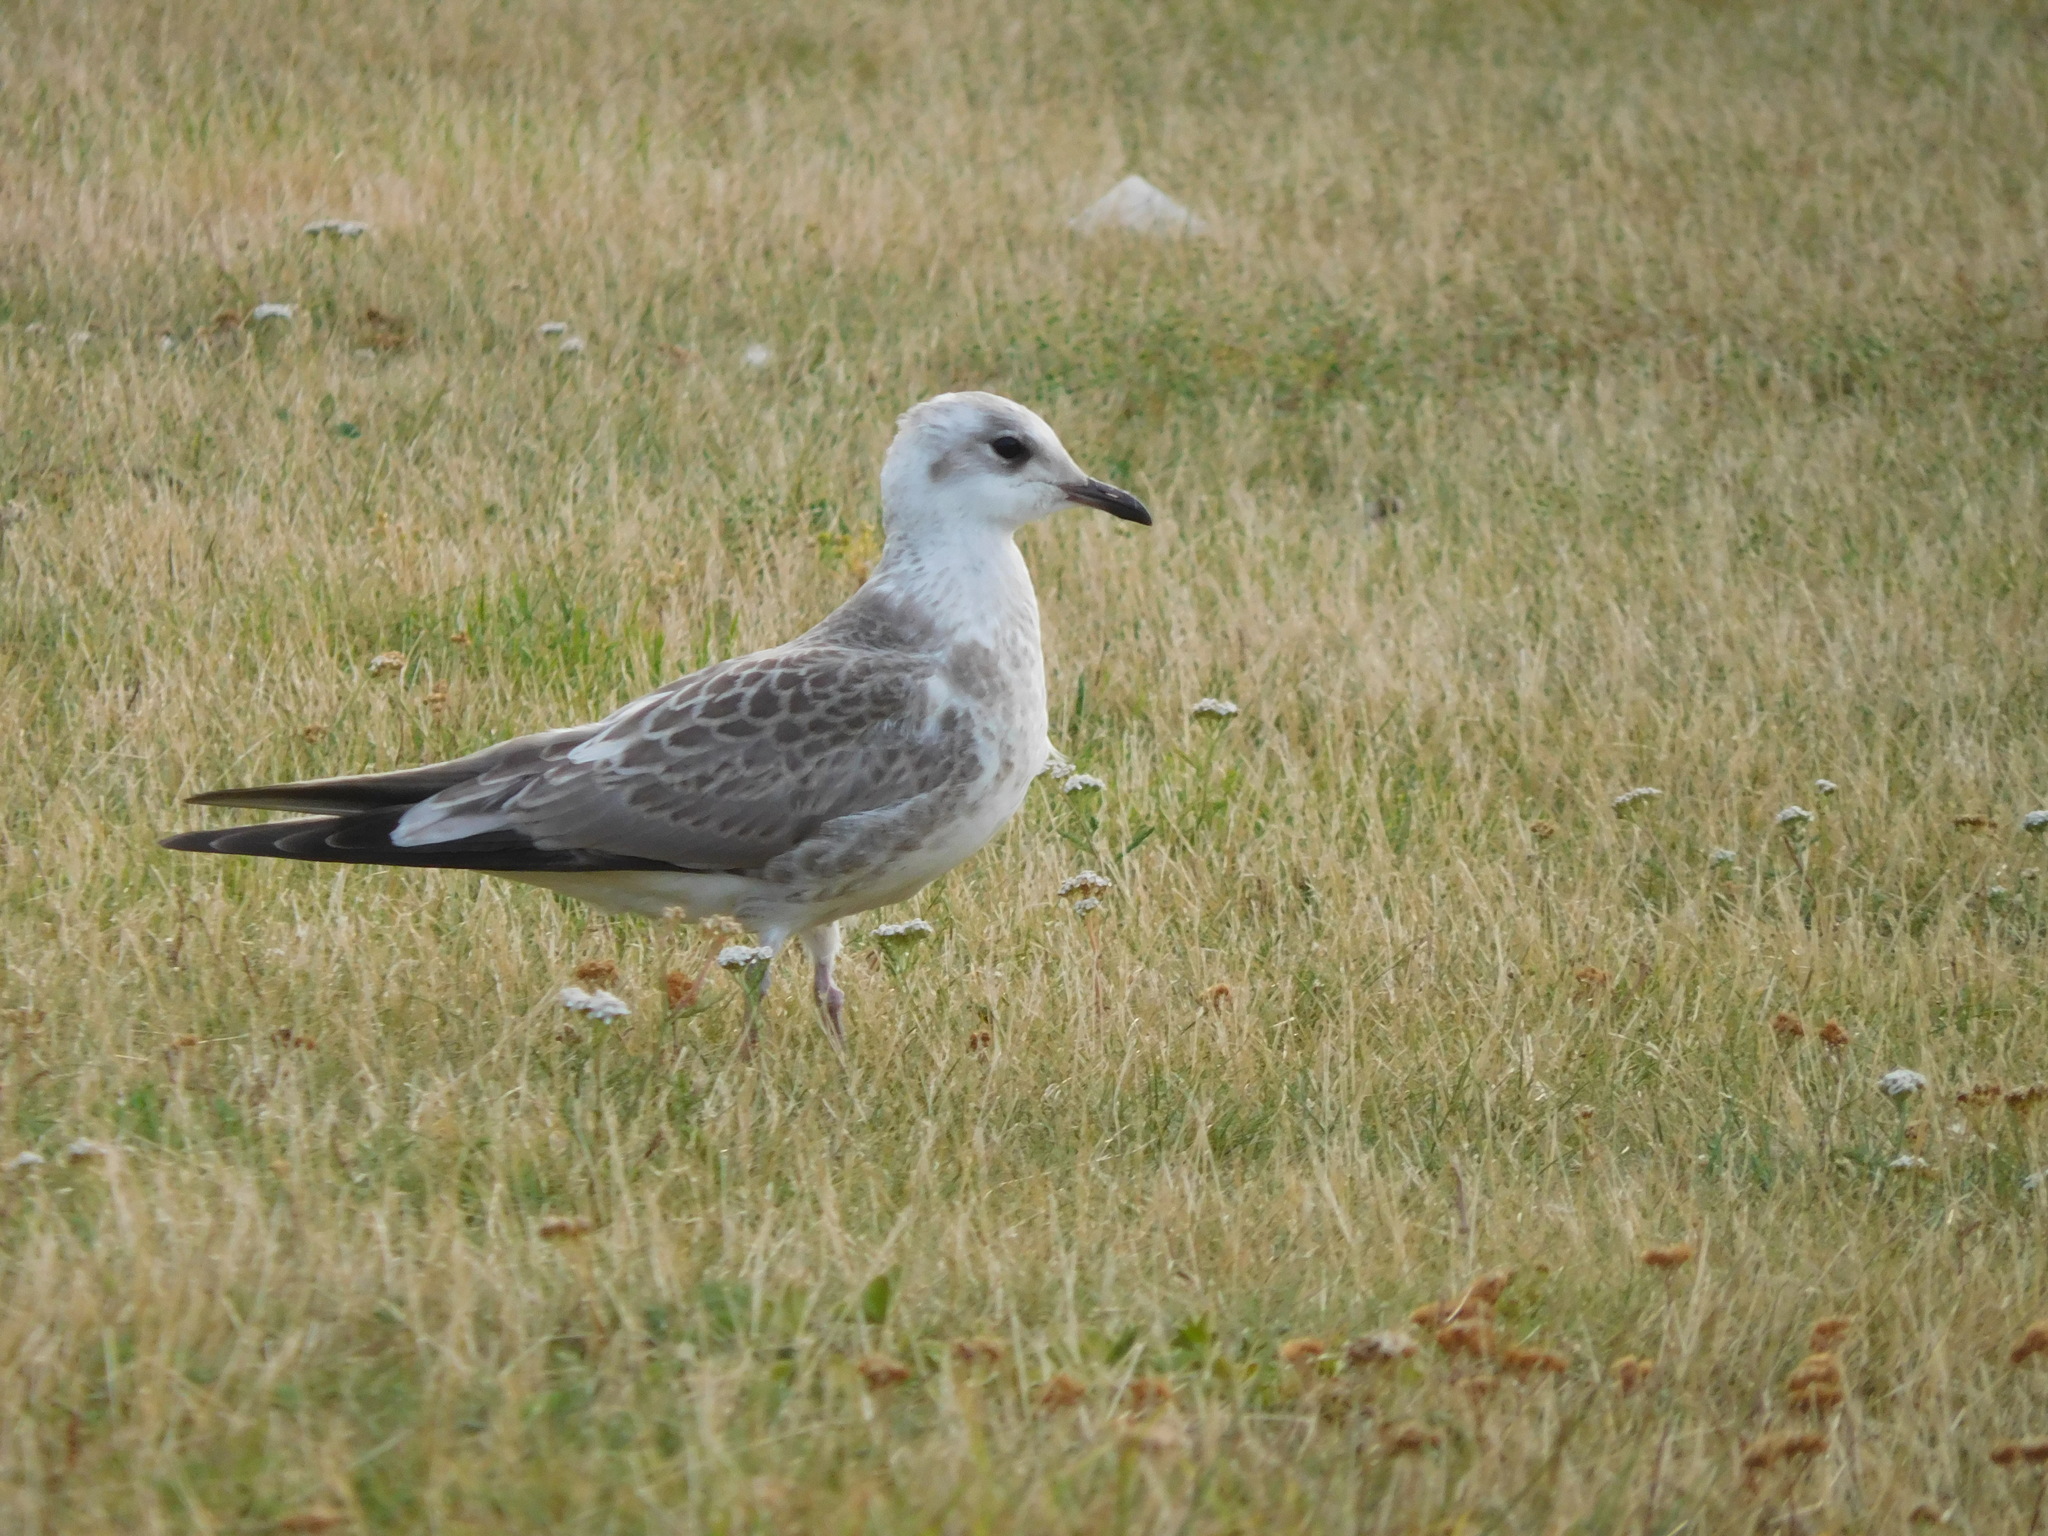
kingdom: Animalia
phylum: Chordata
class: Aves
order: Charadriiformes
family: Laridae
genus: Larus
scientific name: Larus canus
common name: Mew gull
